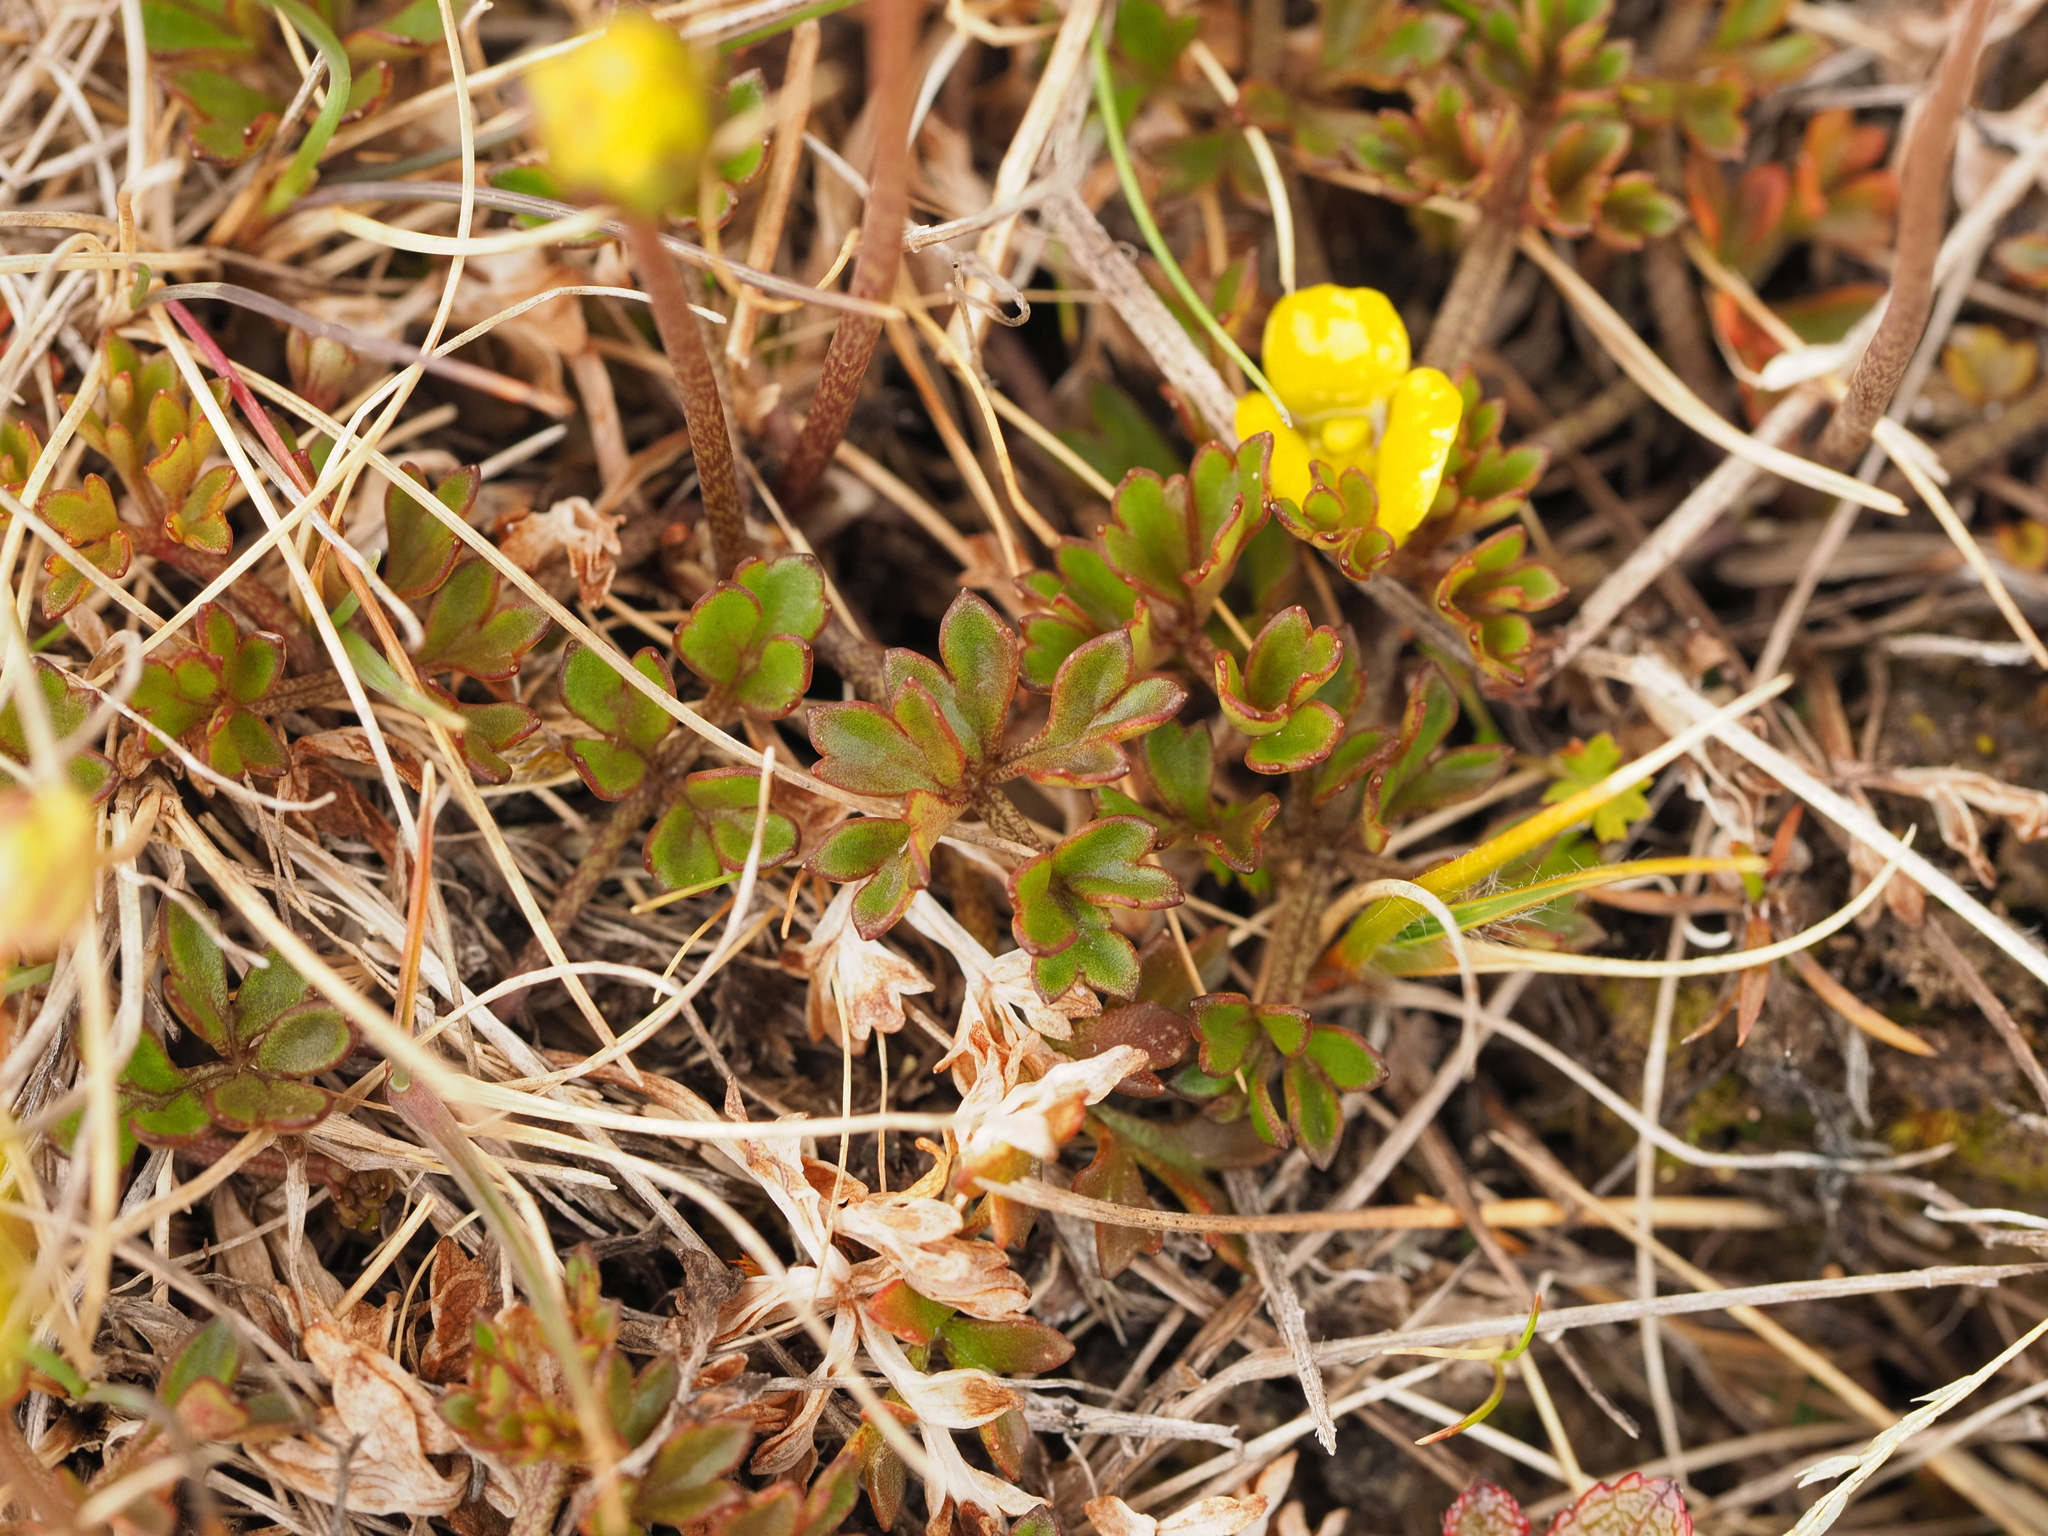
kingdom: Plantae
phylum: Tracheophyta
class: Magnoliopsida
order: Ranunculales
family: Ranunculaceae
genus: Ranunculus
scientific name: Ranunculus enysii
